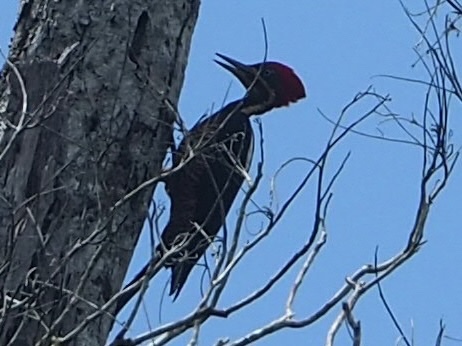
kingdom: Animalia
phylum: Chordata
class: Aves
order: Piciformes
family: Picidae
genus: Dryocopus
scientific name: Dryocopus lineatus
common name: Lineated woodpecker
